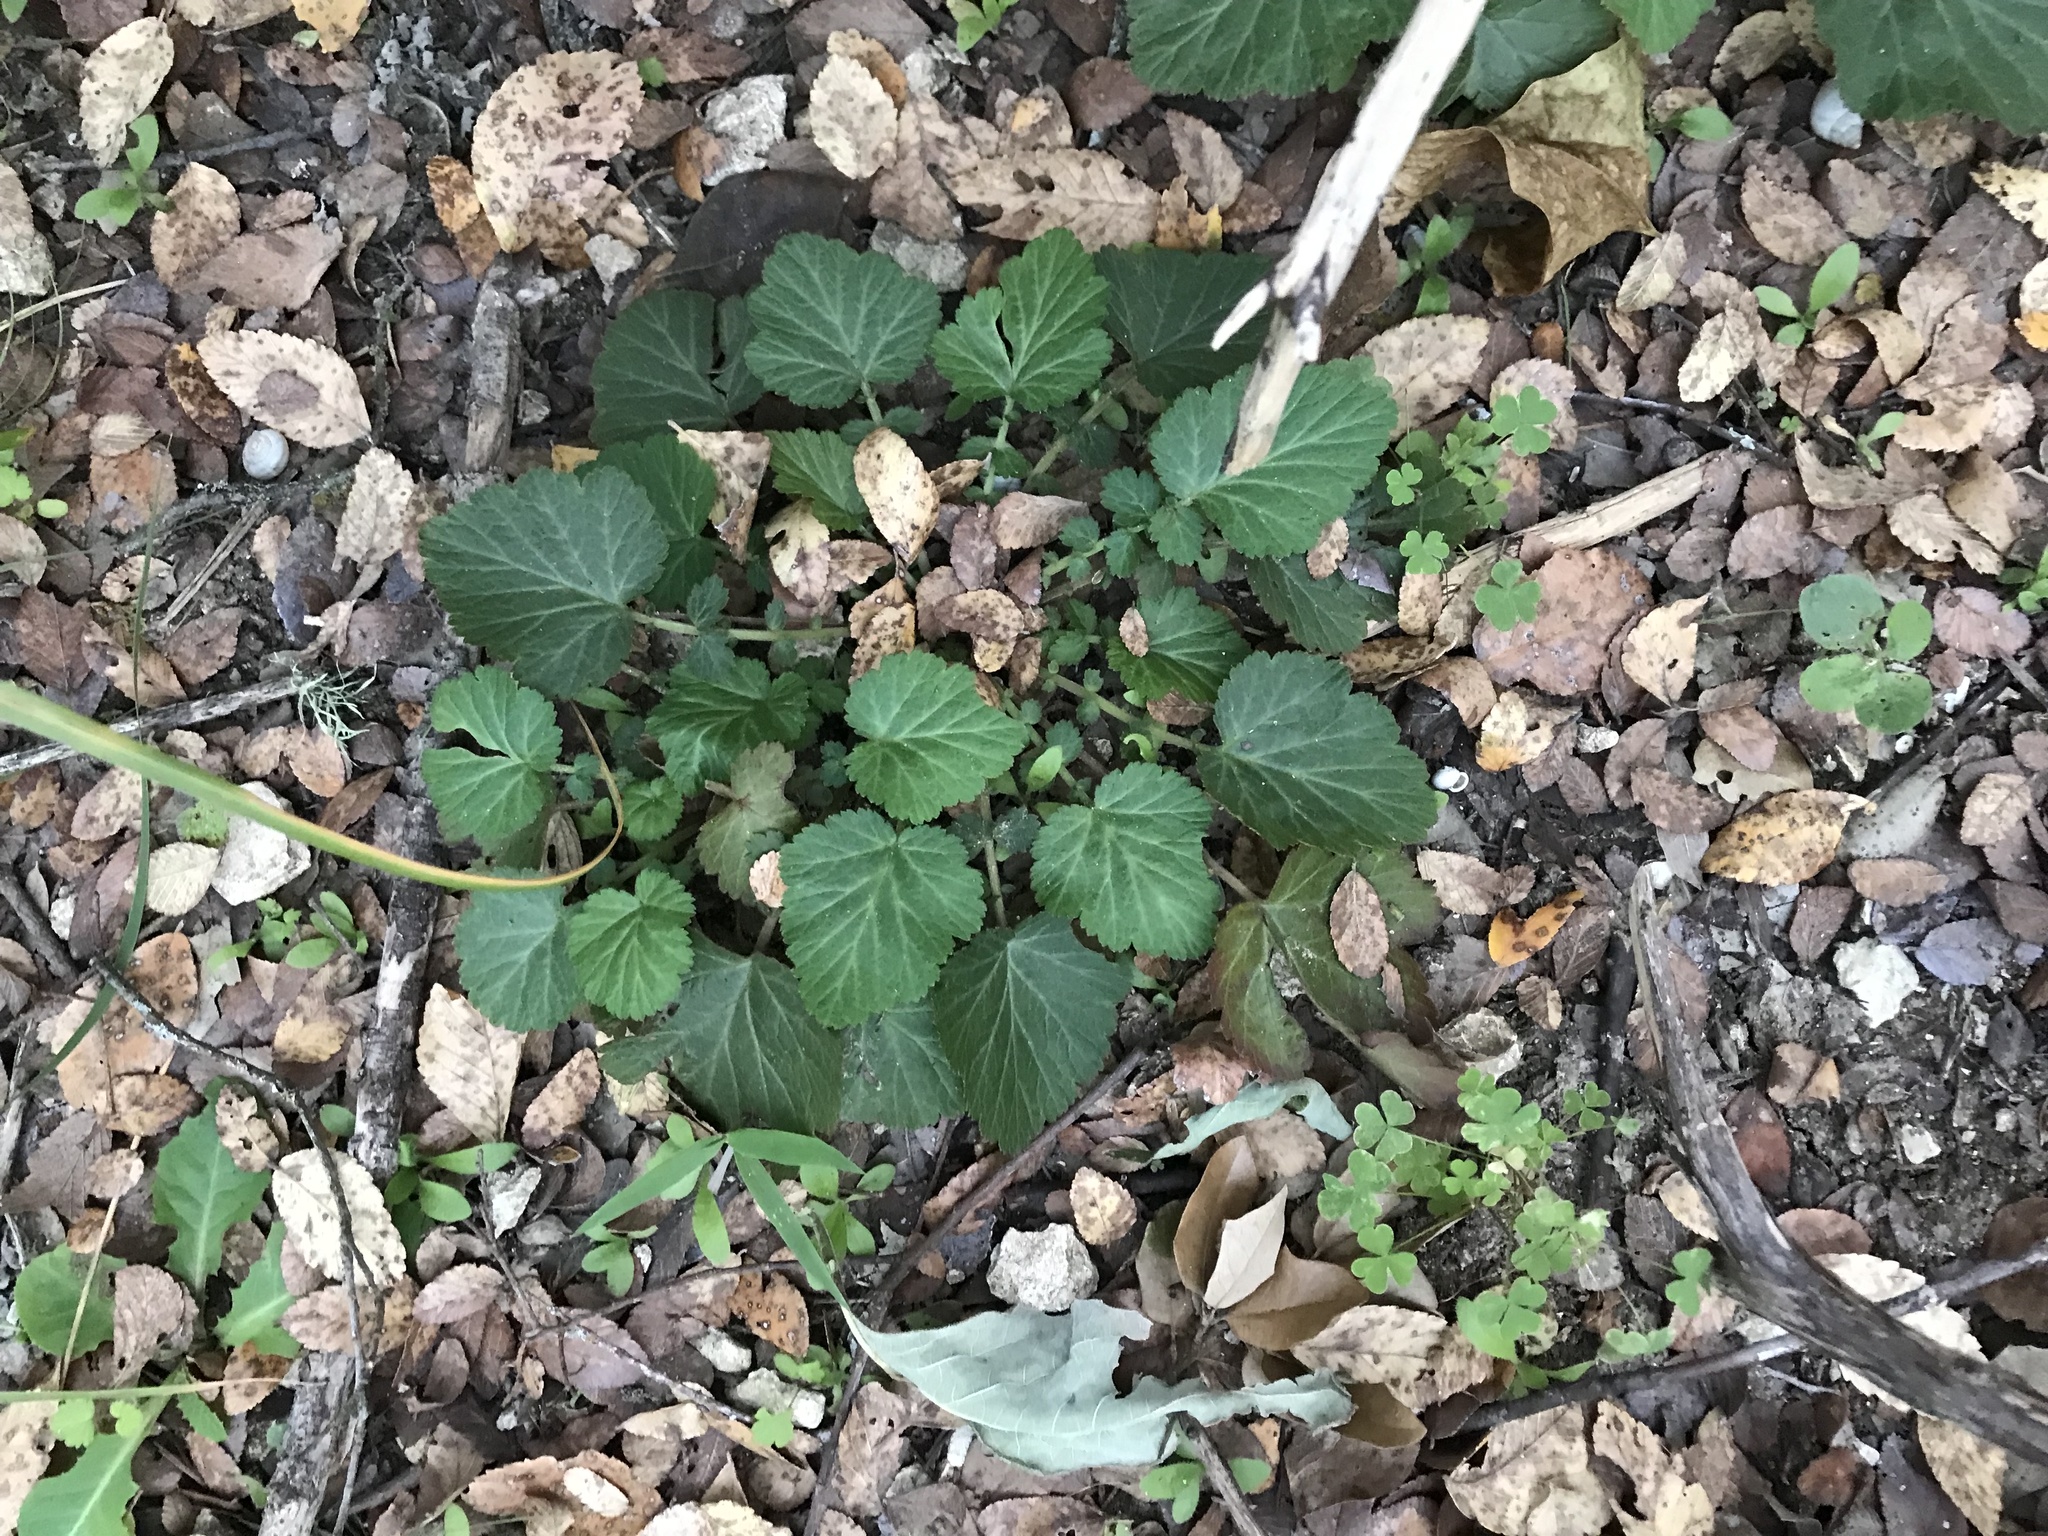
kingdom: Plantae
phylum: Tracheophyta
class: Magnoliopsida
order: Rosales
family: Rosaceae
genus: Geum
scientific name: Geum canadense
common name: White avens
